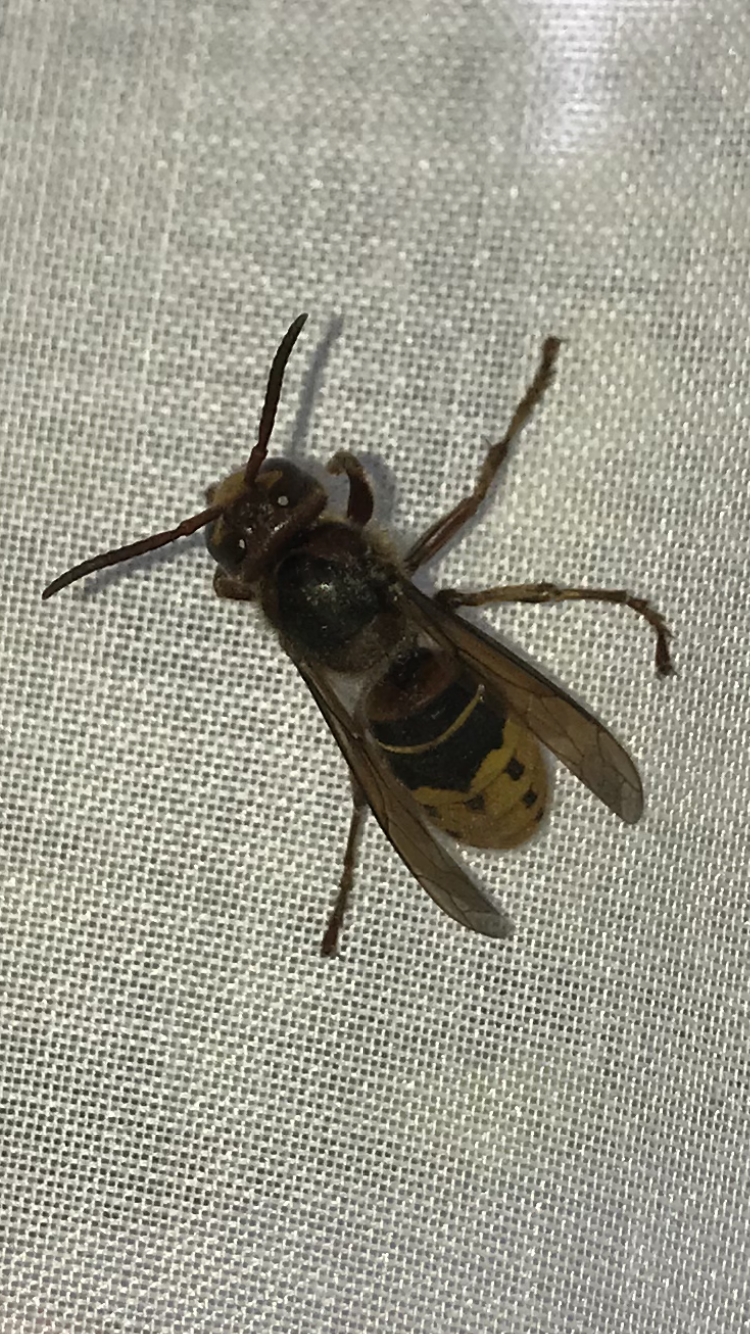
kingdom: Animalia
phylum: Arthropoda
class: Insecta
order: Hymenoptera
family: Vespidae
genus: Vespa
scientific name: Vespa crabro
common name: Hornet
